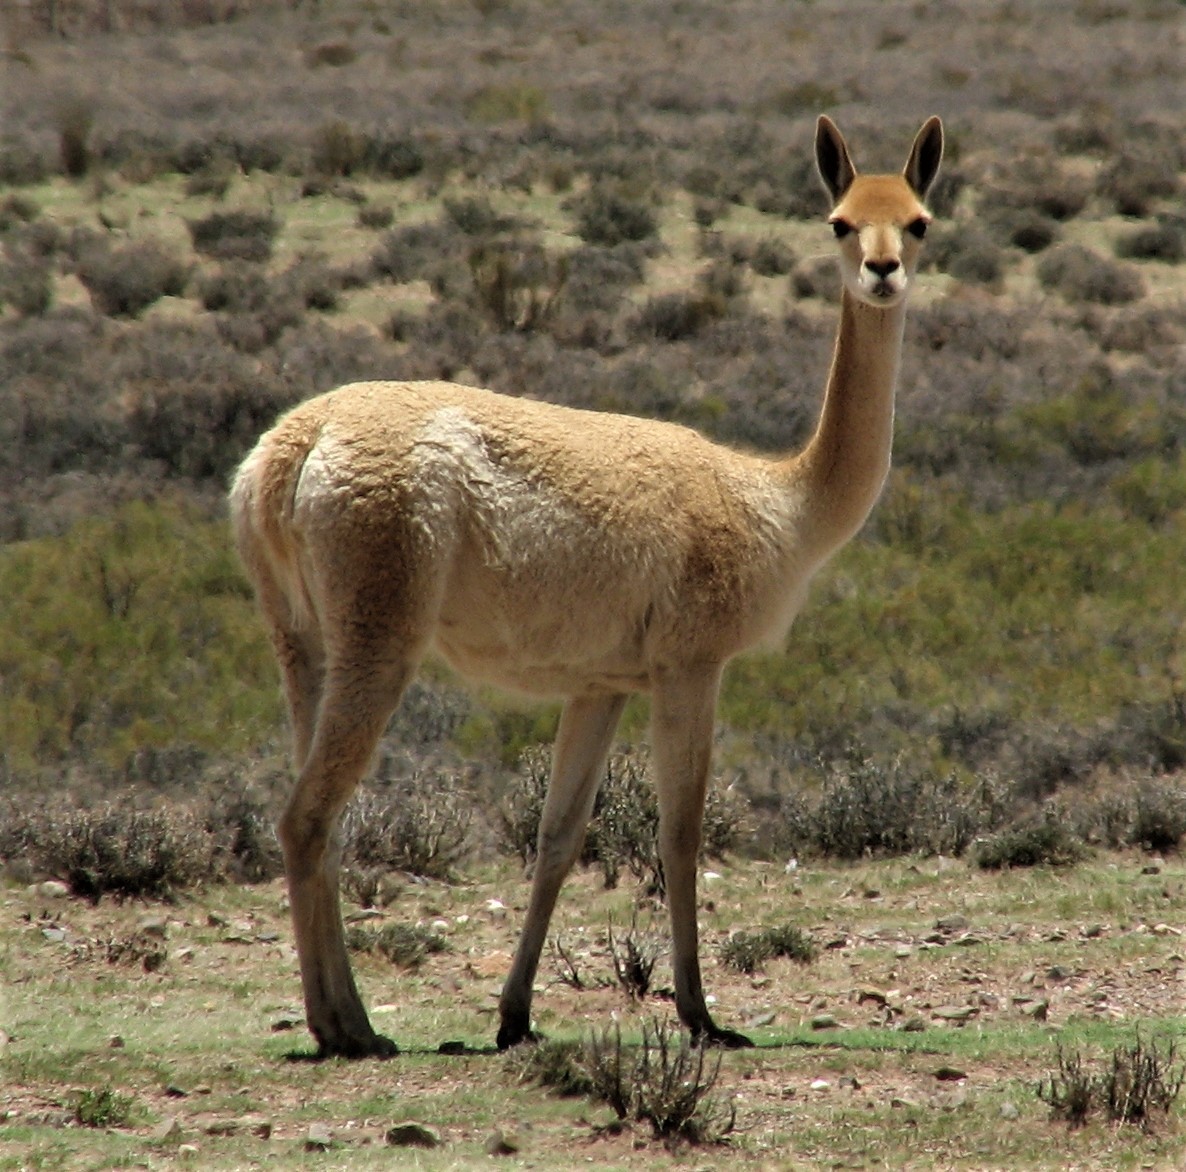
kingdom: Animalia
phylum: Chordata
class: Mammalia
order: Artiodactyla
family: Camelidae
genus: Vicugna
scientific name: Vicugna vicugna
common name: Vicugna
